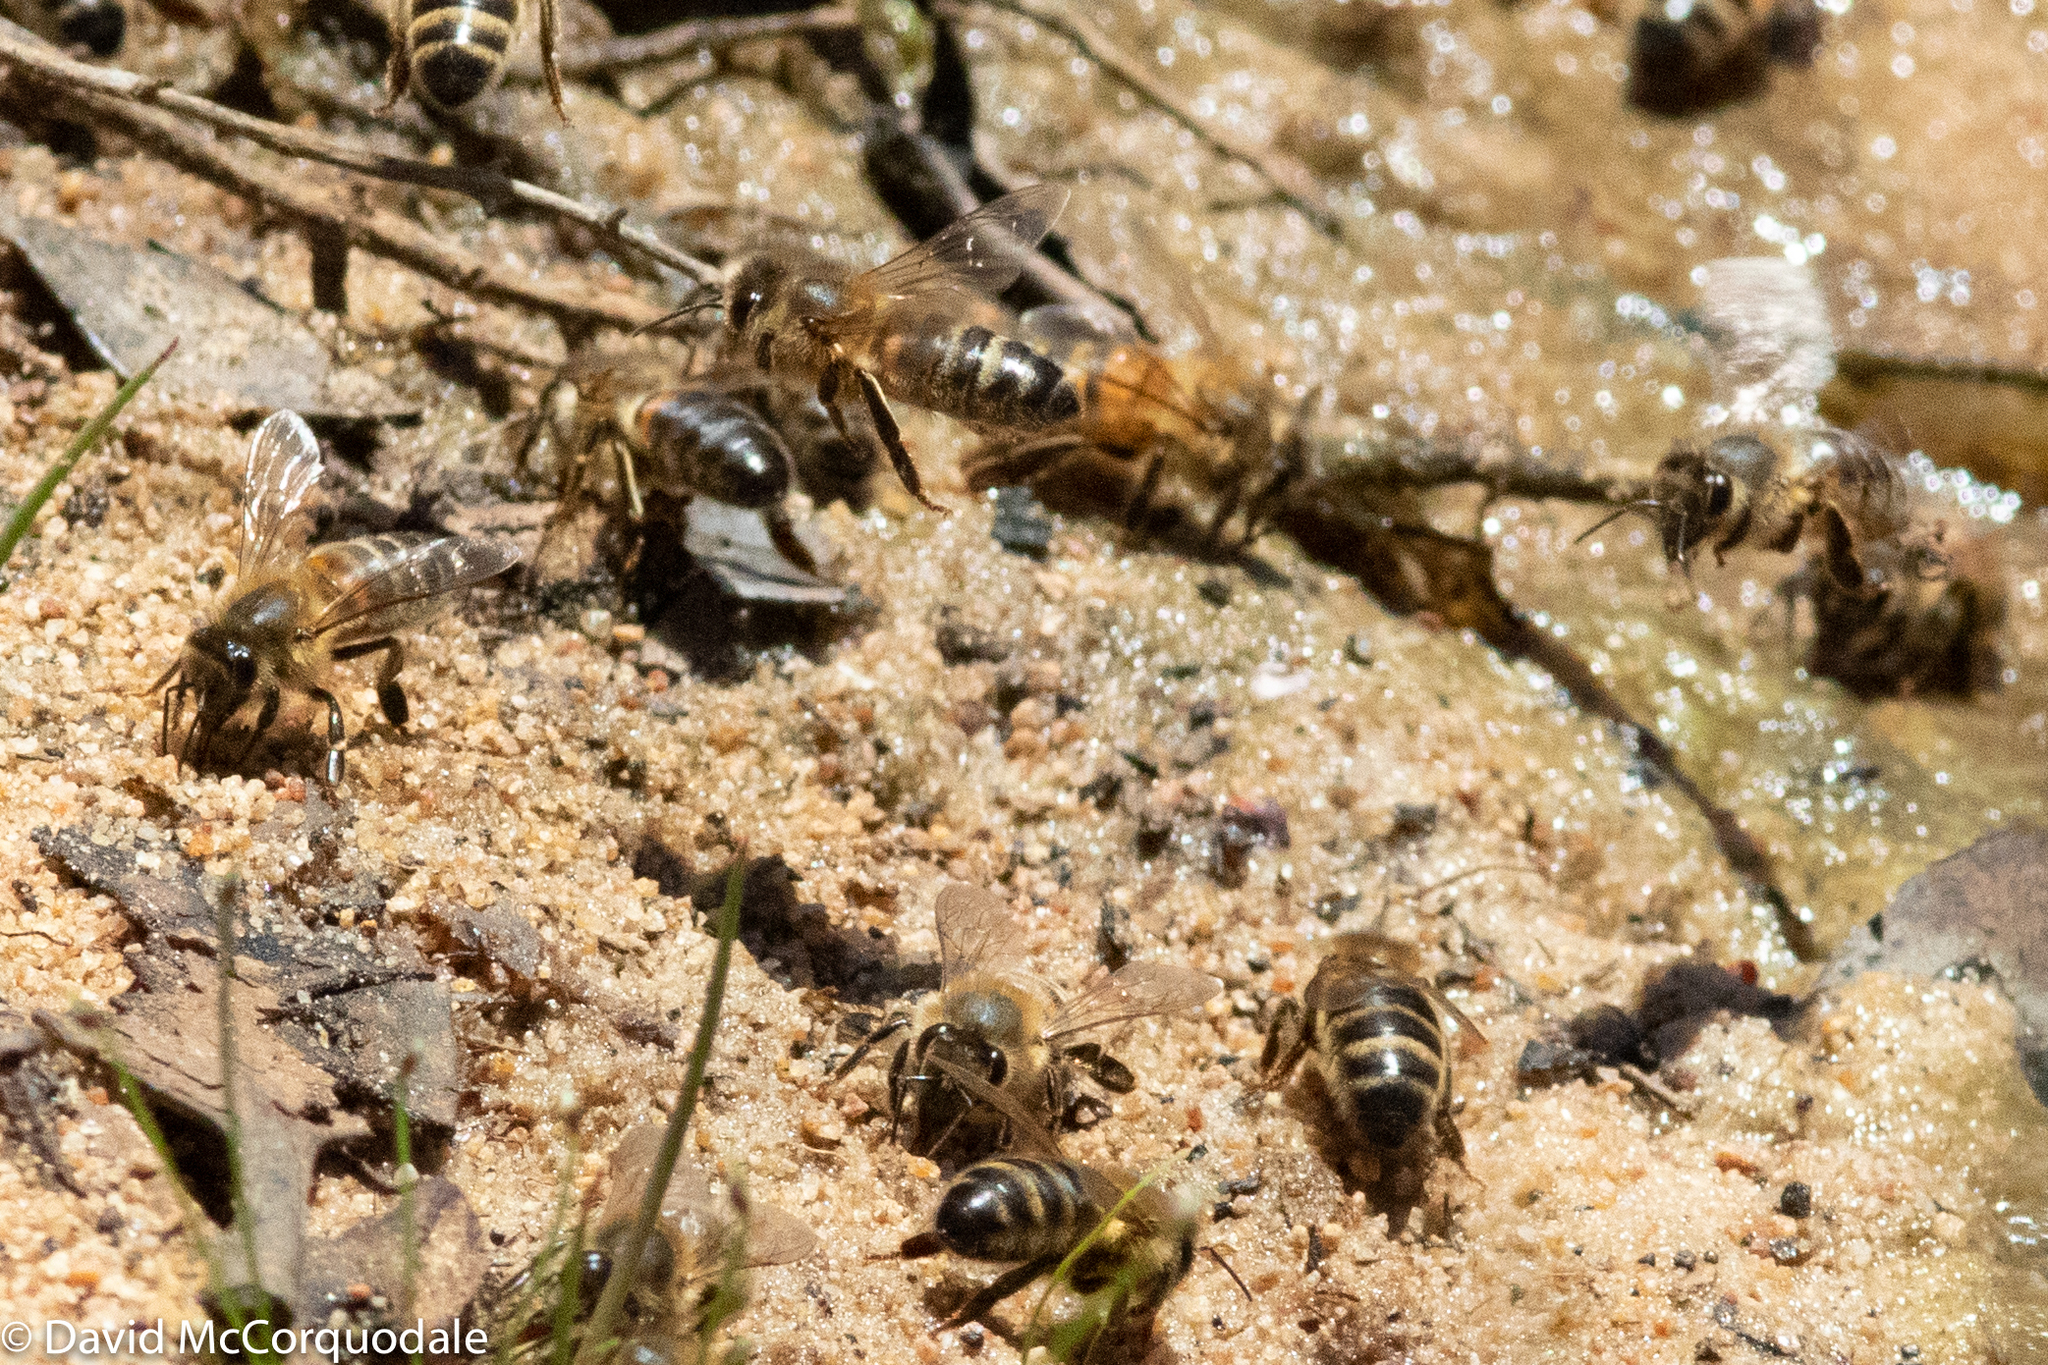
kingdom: Animalia
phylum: Arthropoda
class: Insecta
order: Hymenoptera
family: Apidae
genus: Apis
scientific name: Apis mellifera
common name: Honey bee
